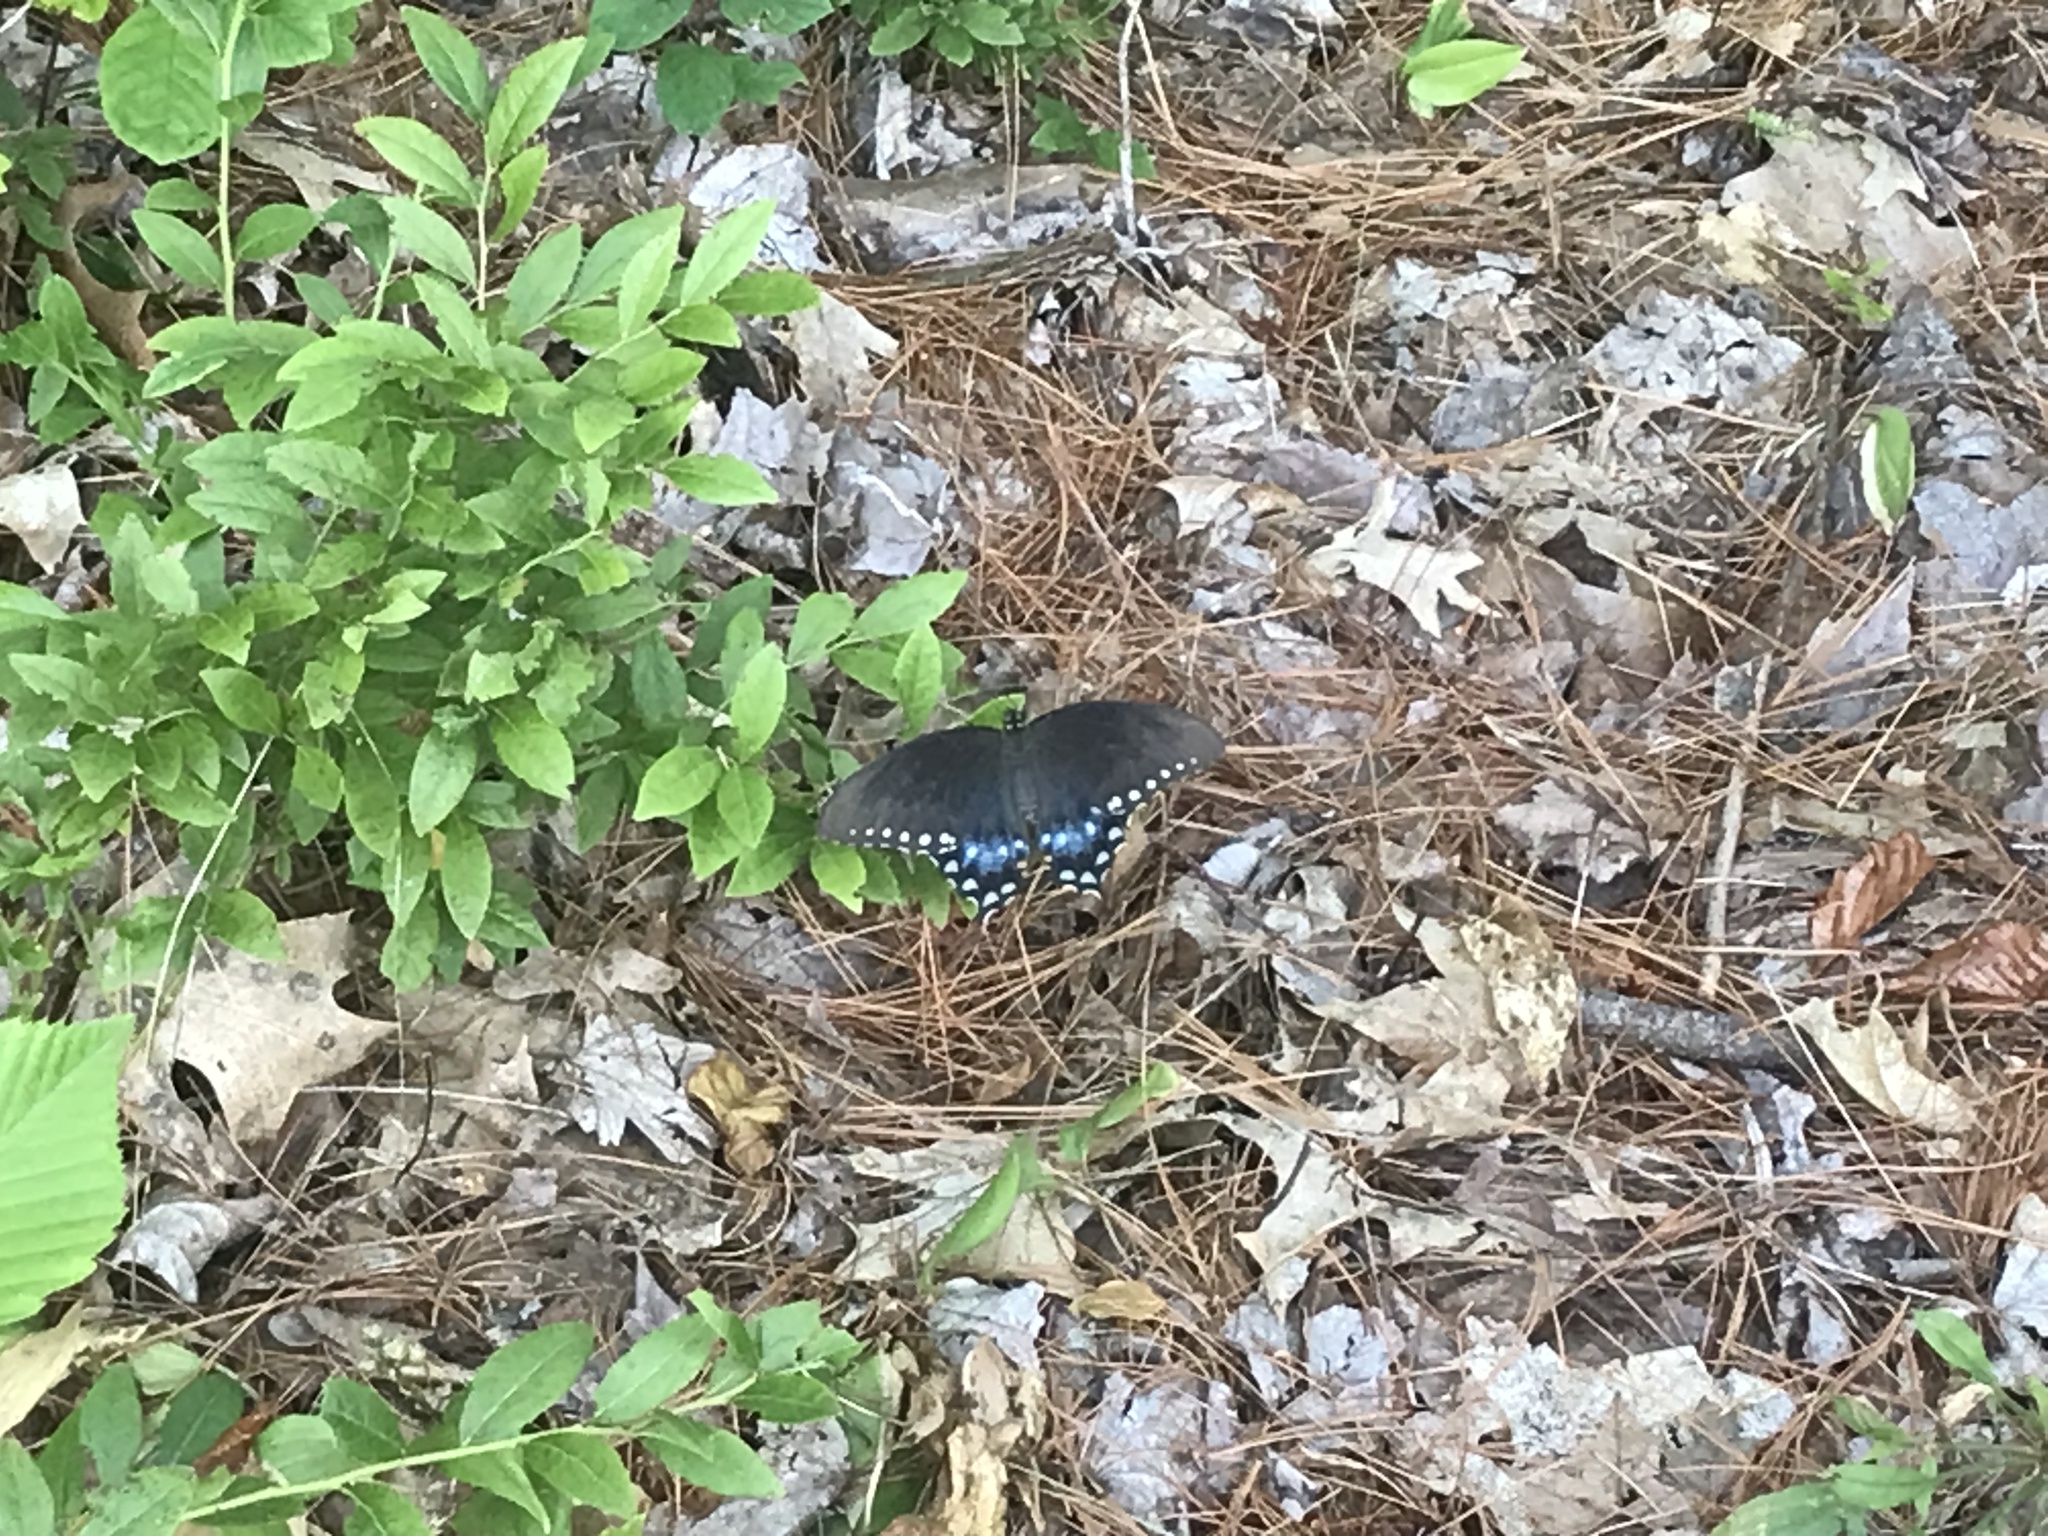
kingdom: Animalia
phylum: Arthropoda
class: Insecta
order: Lepidoptera
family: Papilionidae
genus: Papilio
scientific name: Papilio troilus
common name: Spicebush swallowtail
